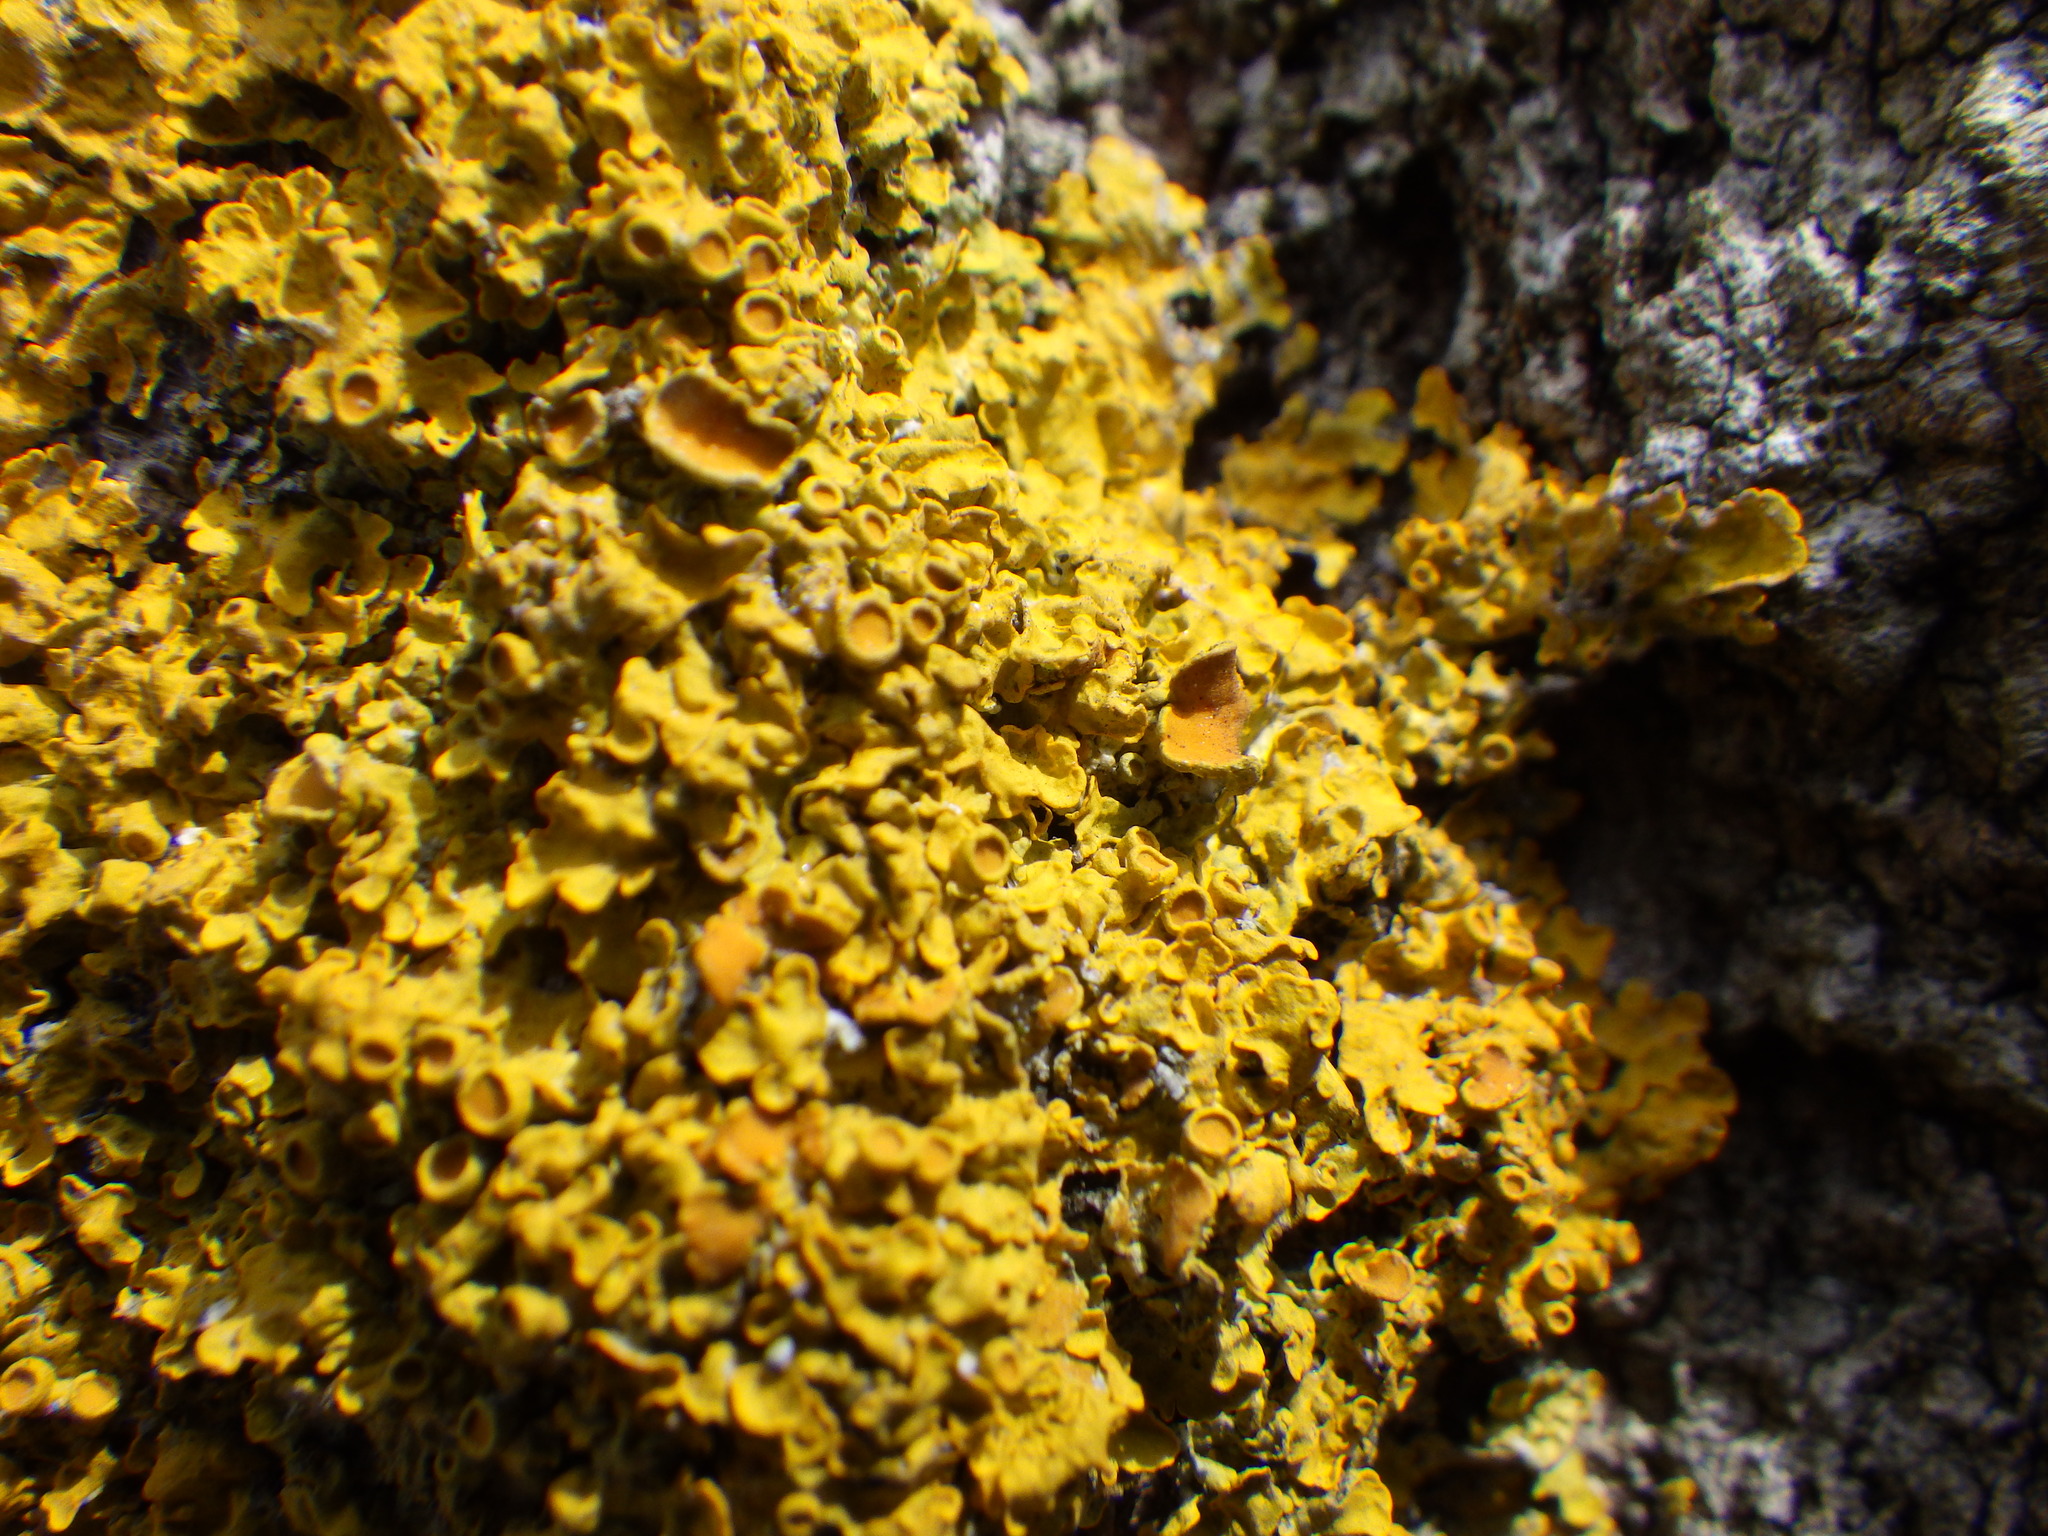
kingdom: Fungi
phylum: Ascomycota
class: Lecanoromycetes
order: Teloschistales
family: Teloschistaceae
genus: Xanthoria
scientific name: Xanthoria parietina
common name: Common orange lichen
